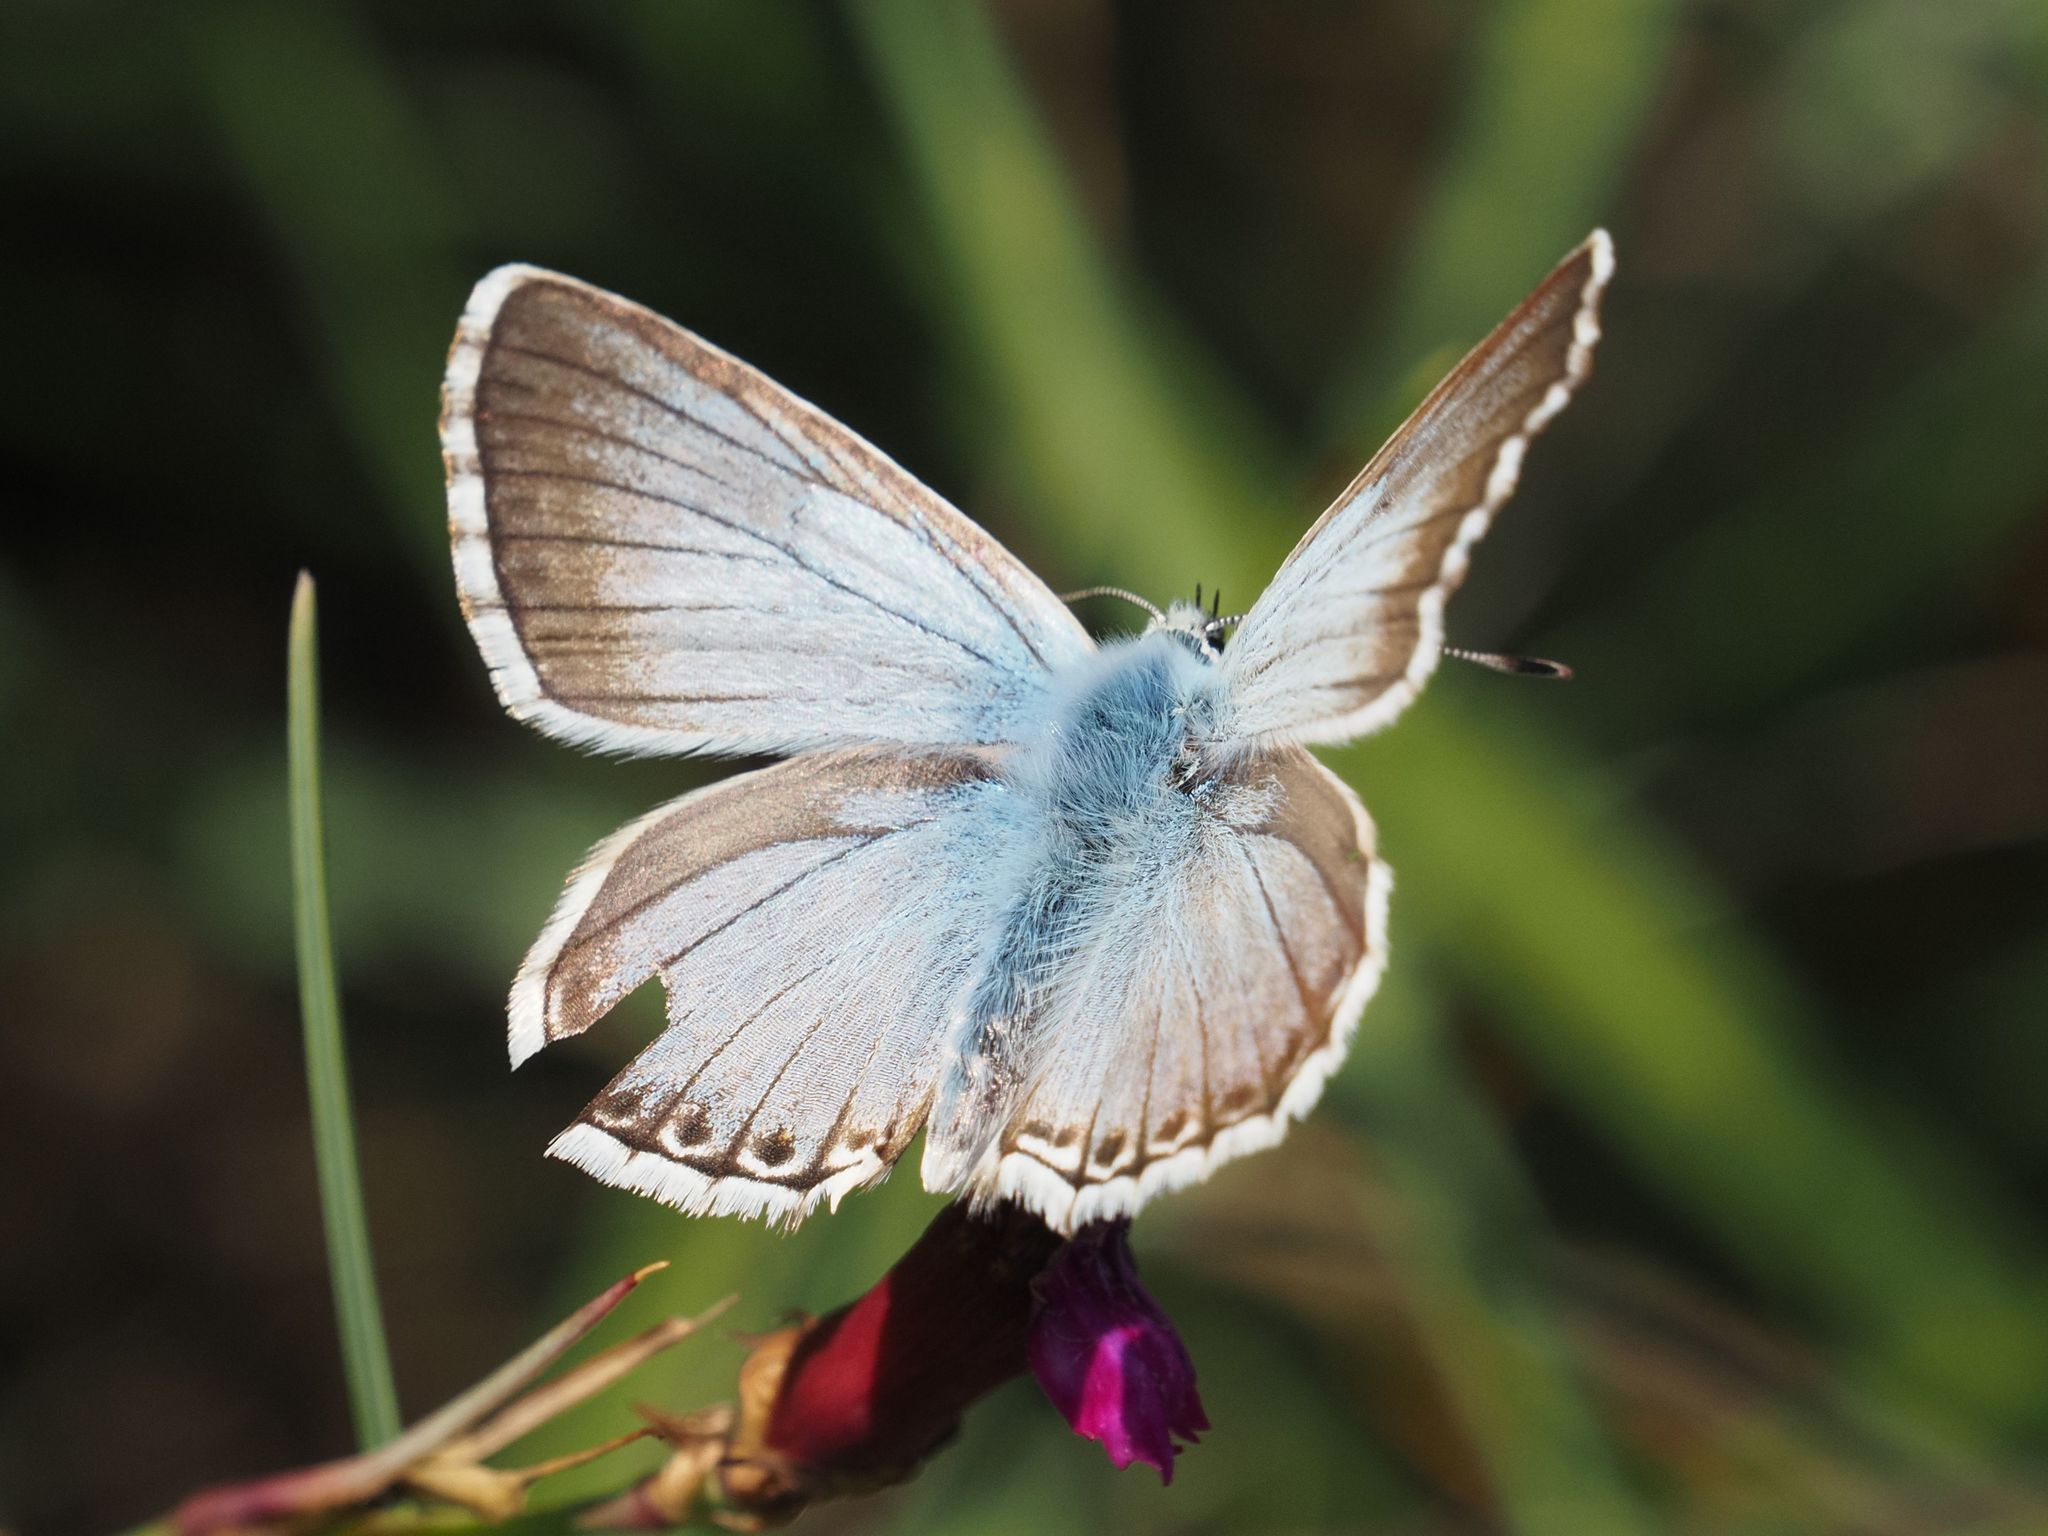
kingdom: Animalia
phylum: Arthropoda
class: Insecta
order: Lepidoptera
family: Lycaenidae
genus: Lysandra
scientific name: Lysandra coridon
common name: Chalkhill blue
